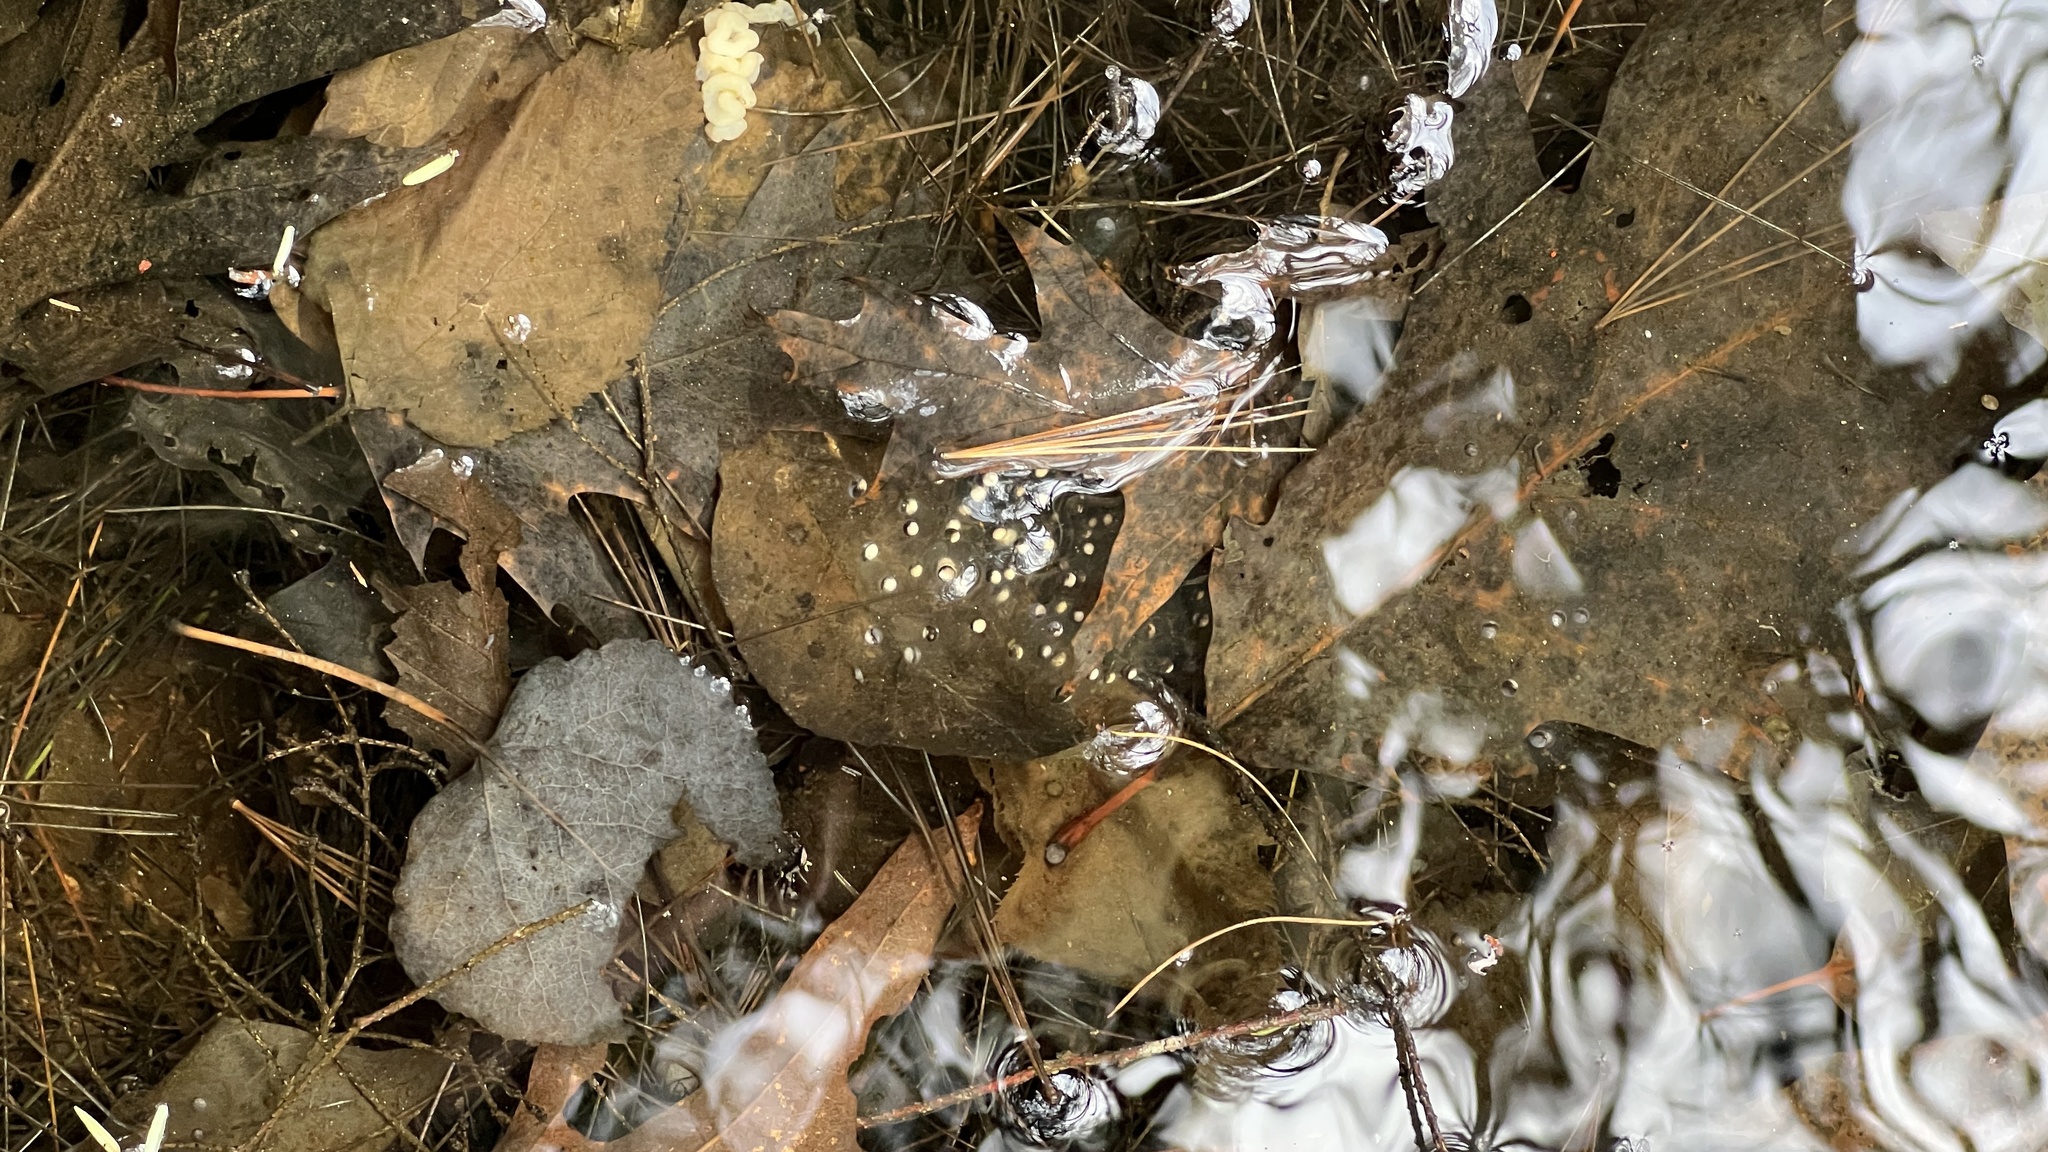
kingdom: Animalia
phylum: Chordata
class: Amphibia
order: Anura
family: Ranidae
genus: Lithobates
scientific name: Lithobates sylvaticus
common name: Wood frog
